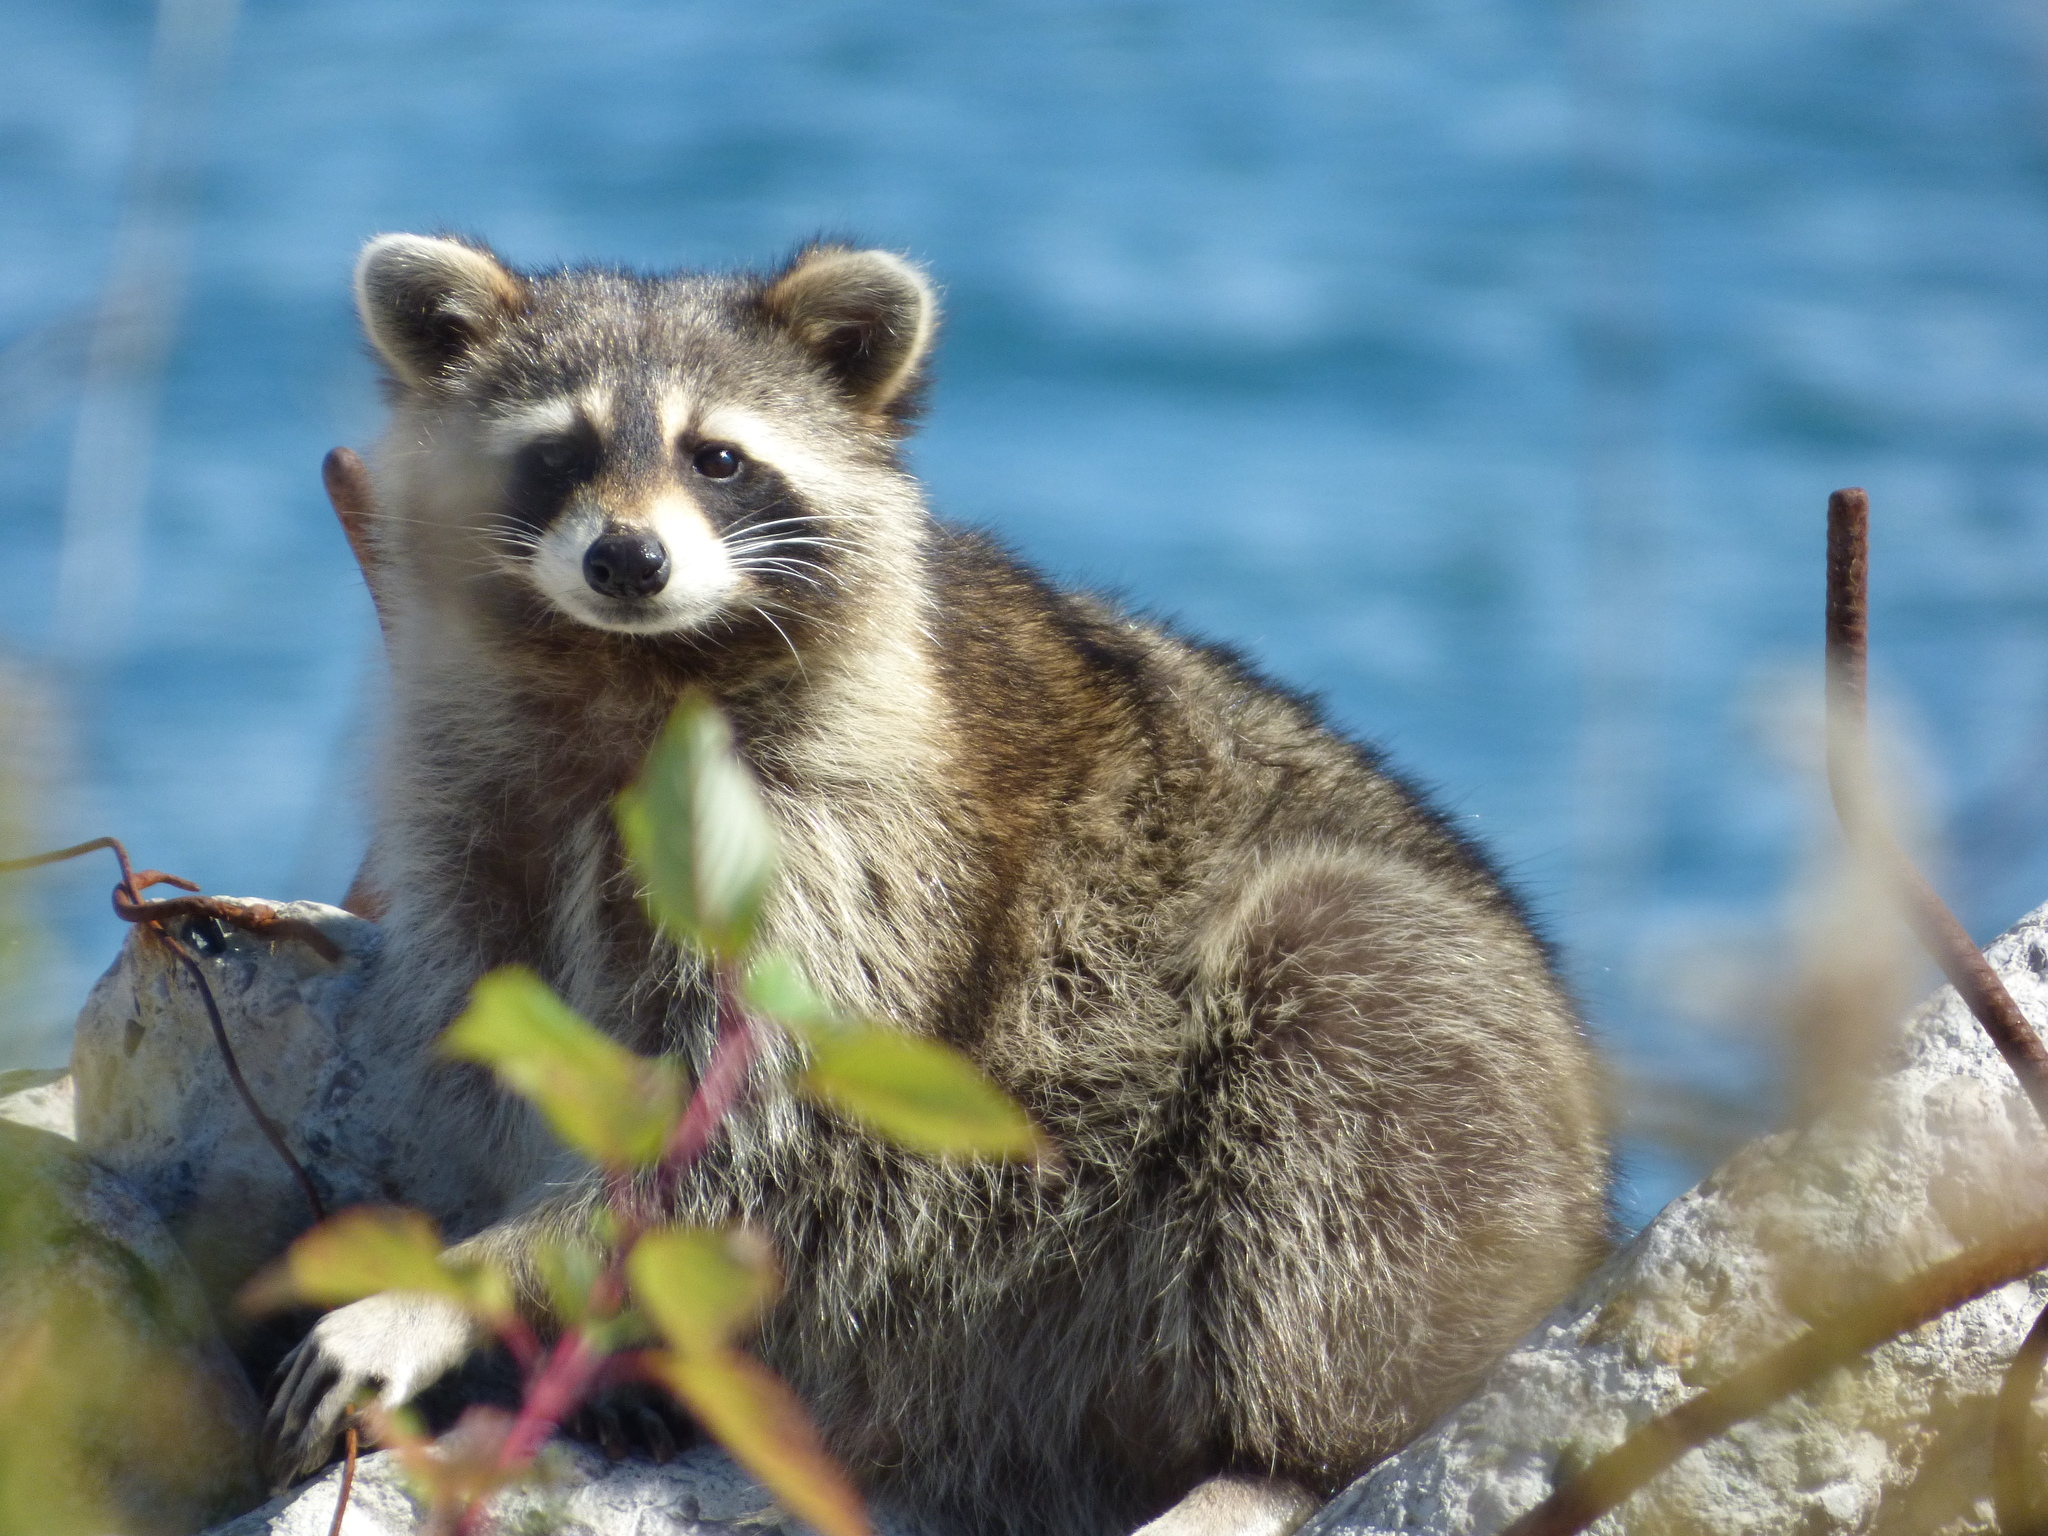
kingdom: Animalia
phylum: Chordata
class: Mammalia
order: Carnivora
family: Procyonidae
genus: Procyon
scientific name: Procyon lotor
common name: Raccoon
